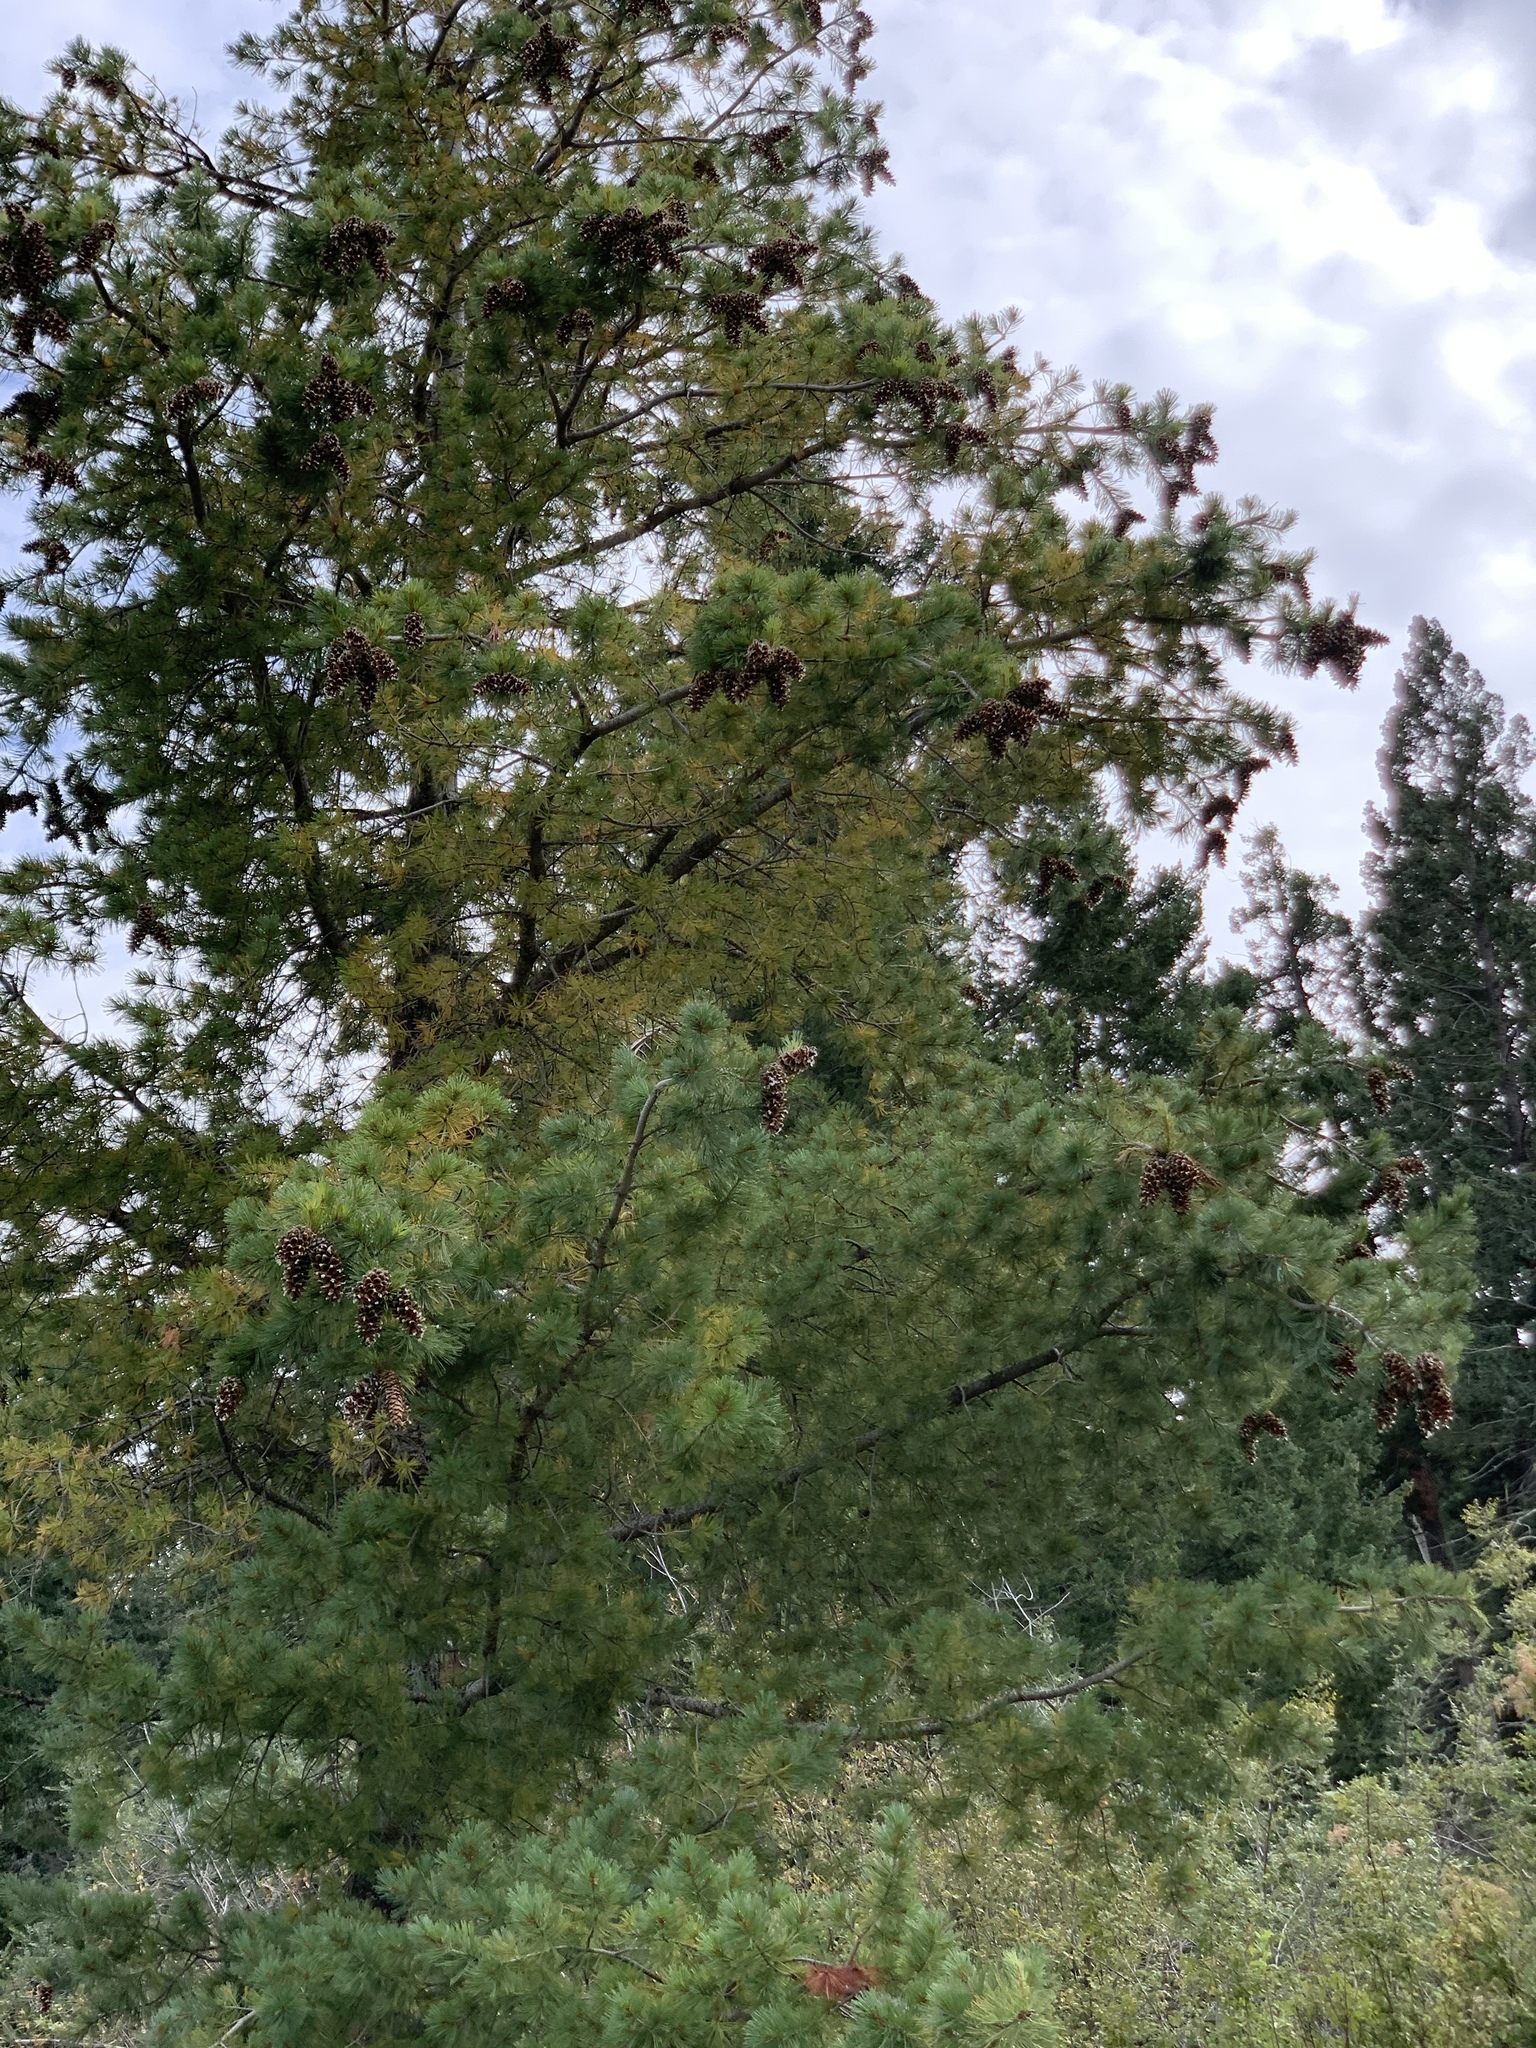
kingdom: Plantae
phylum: Tracheophyta
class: Pinopsida
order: Pinales
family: Pinaceae
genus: Pinus
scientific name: Pinus strobiformis
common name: Southwestern white pine
